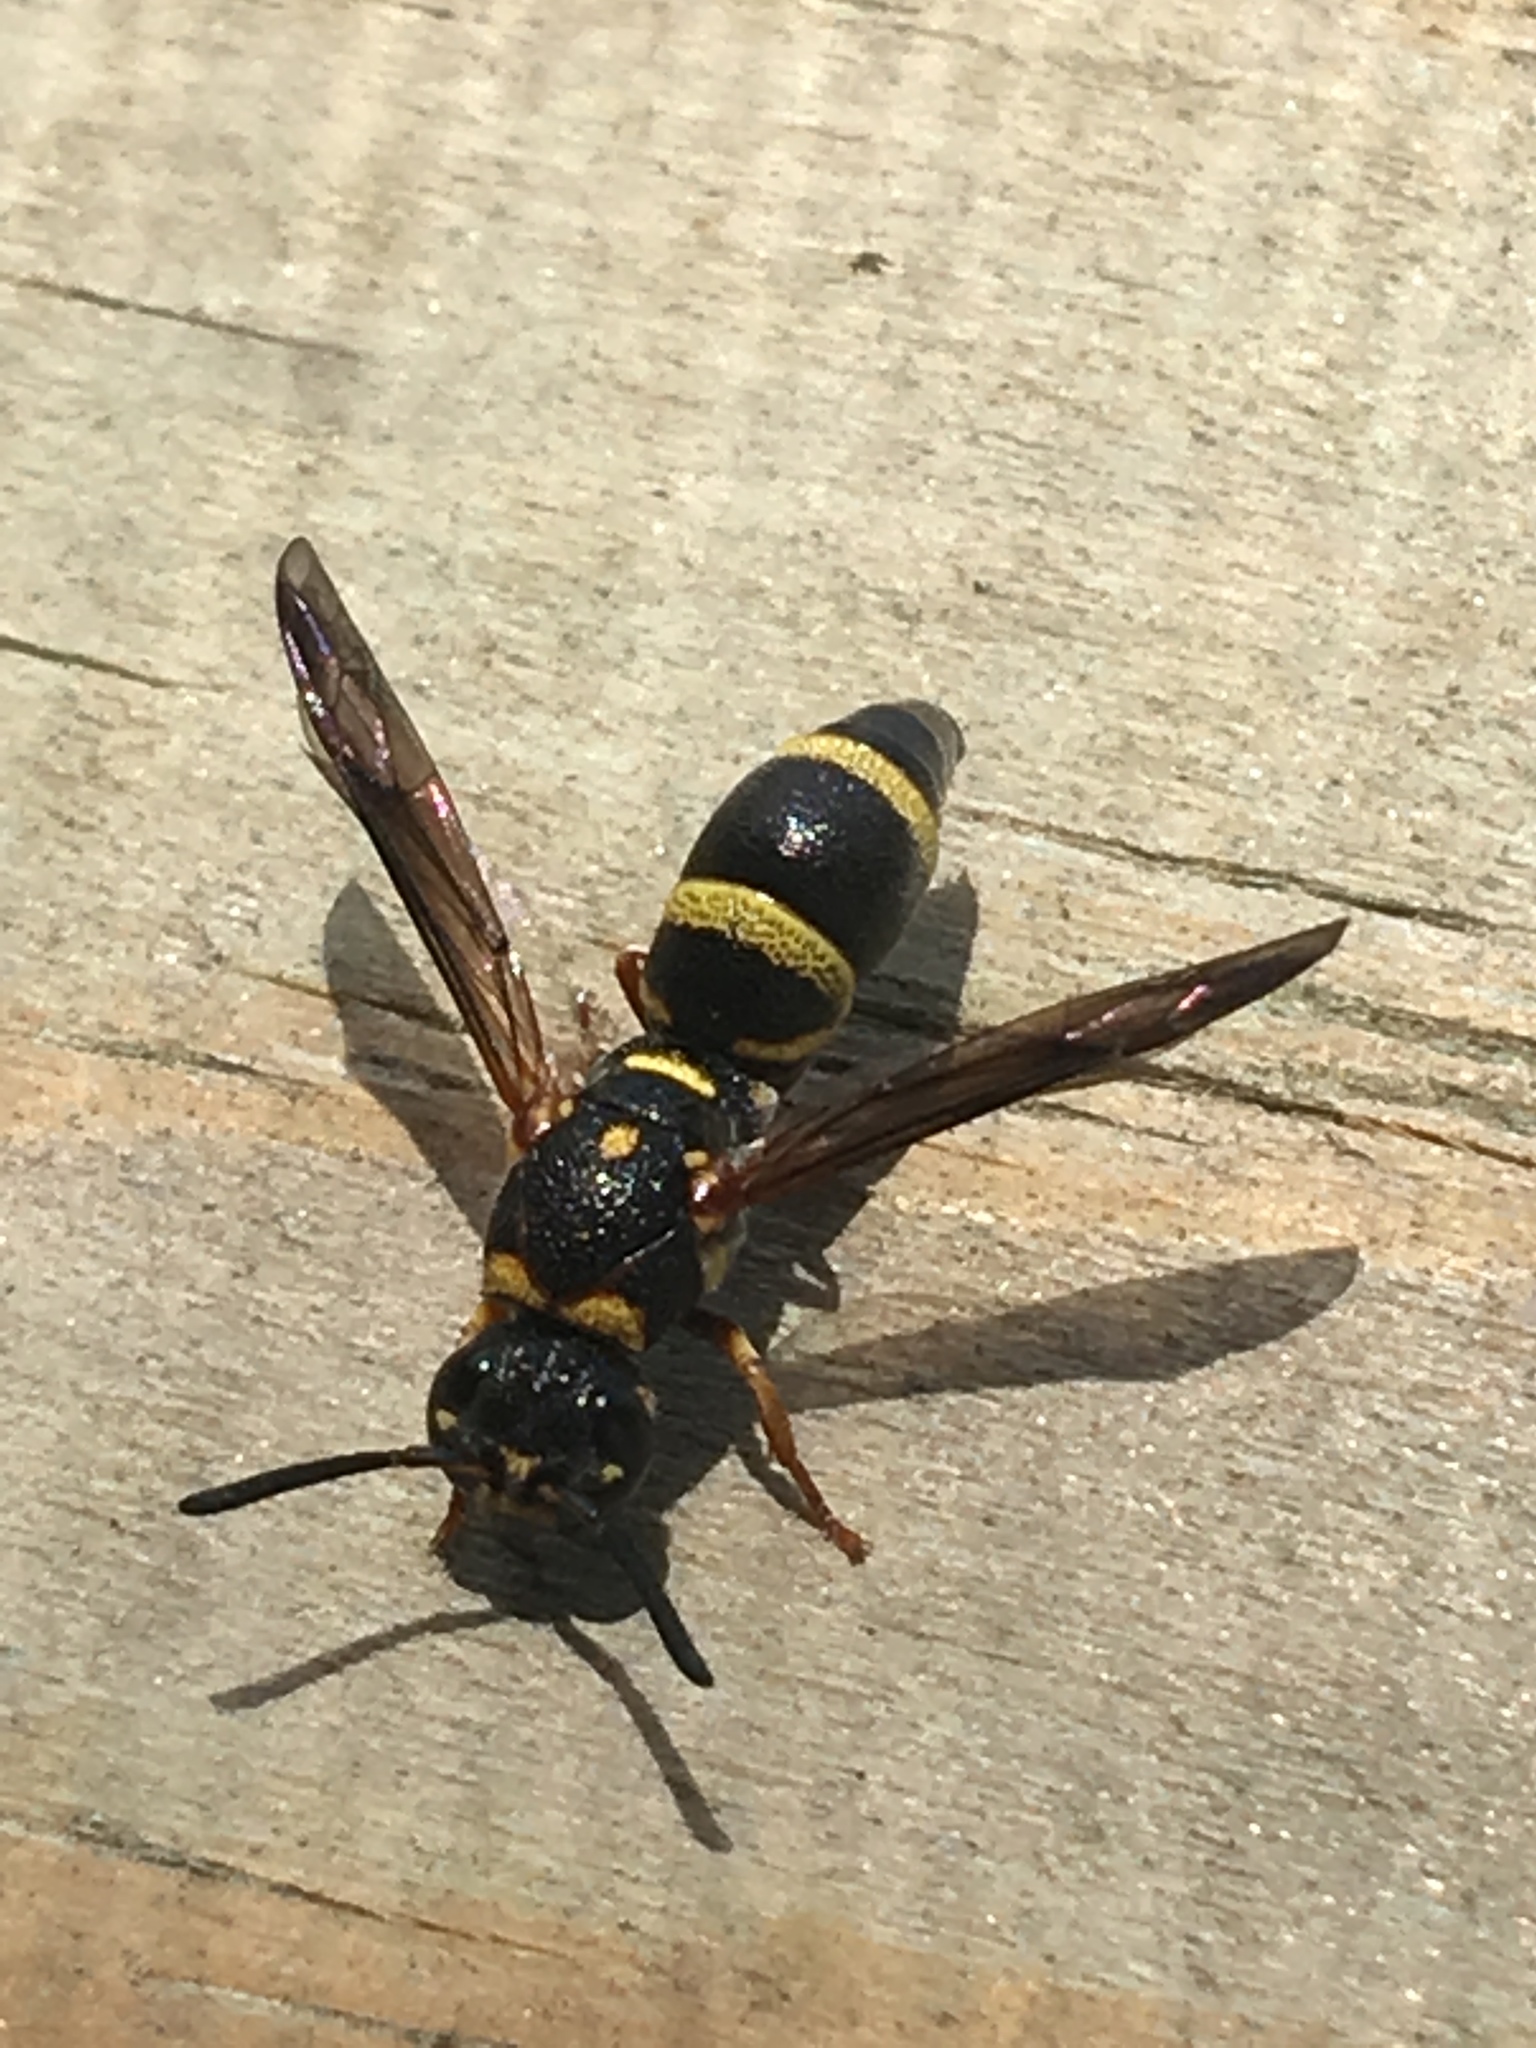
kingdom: Animalia
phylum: Arthropoda
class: Insecta
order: Hymenoptera
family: Eumenidae
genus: Parancistrocerus
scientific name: Parancistrocerus fulvipes
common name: Potter wasp
